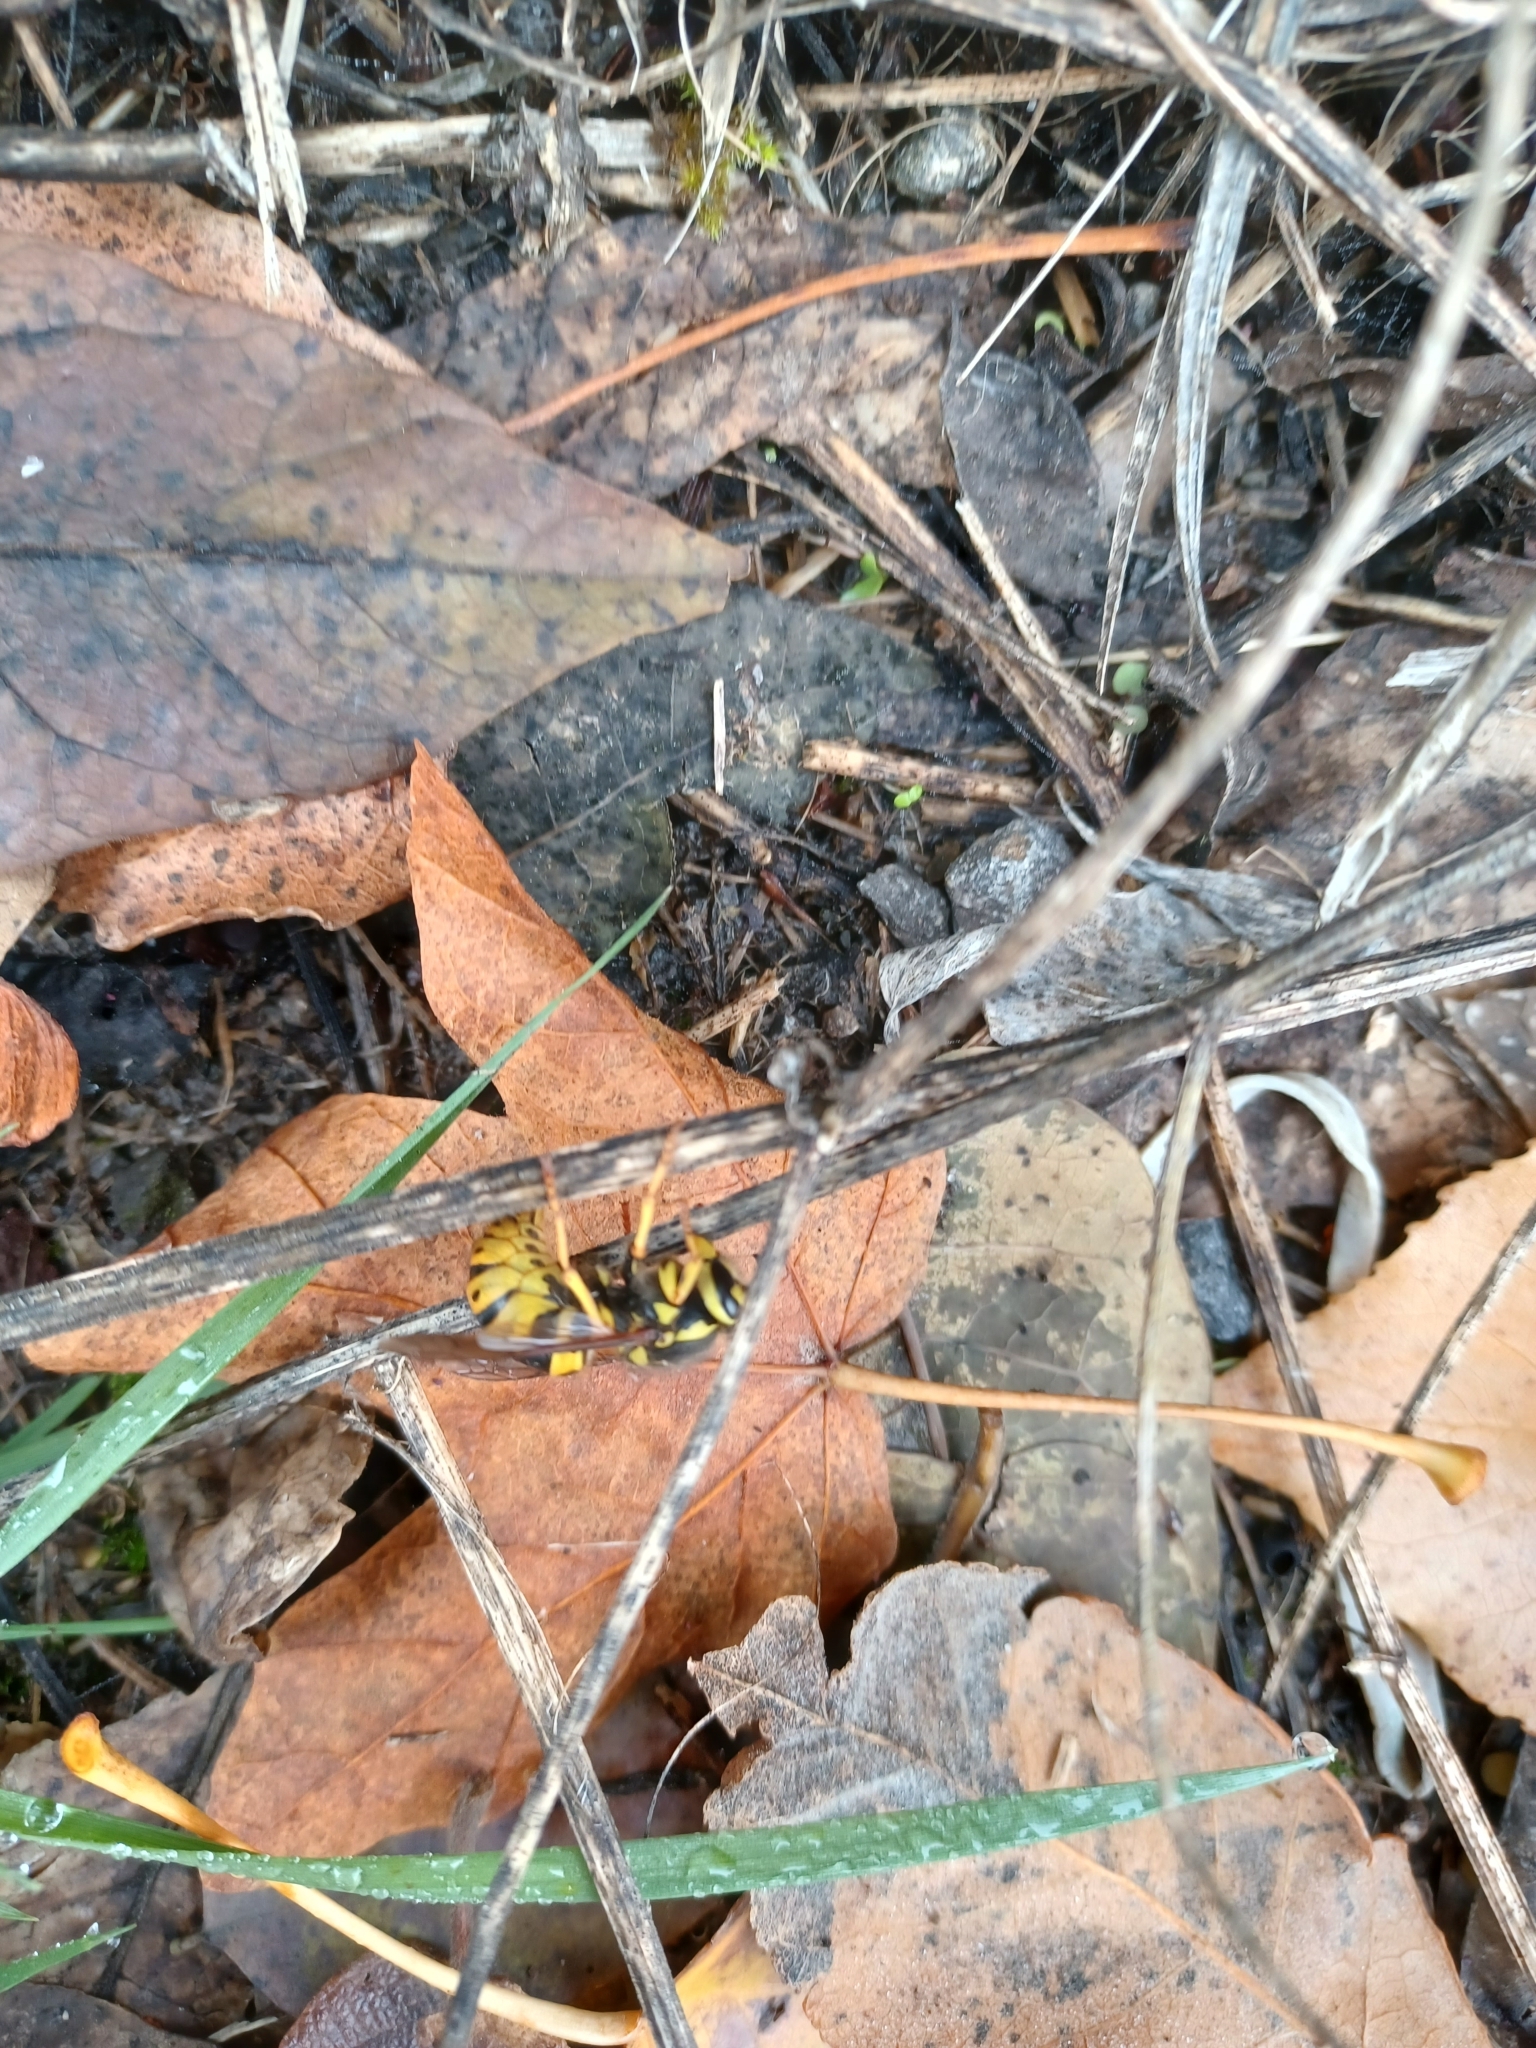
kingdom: Animalia
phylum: Arthropoda
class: Insecta
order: Hymenoptera
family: Vespidae
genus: Vespula
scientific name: Vespula pensylvanica
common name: Western yellowjacket
